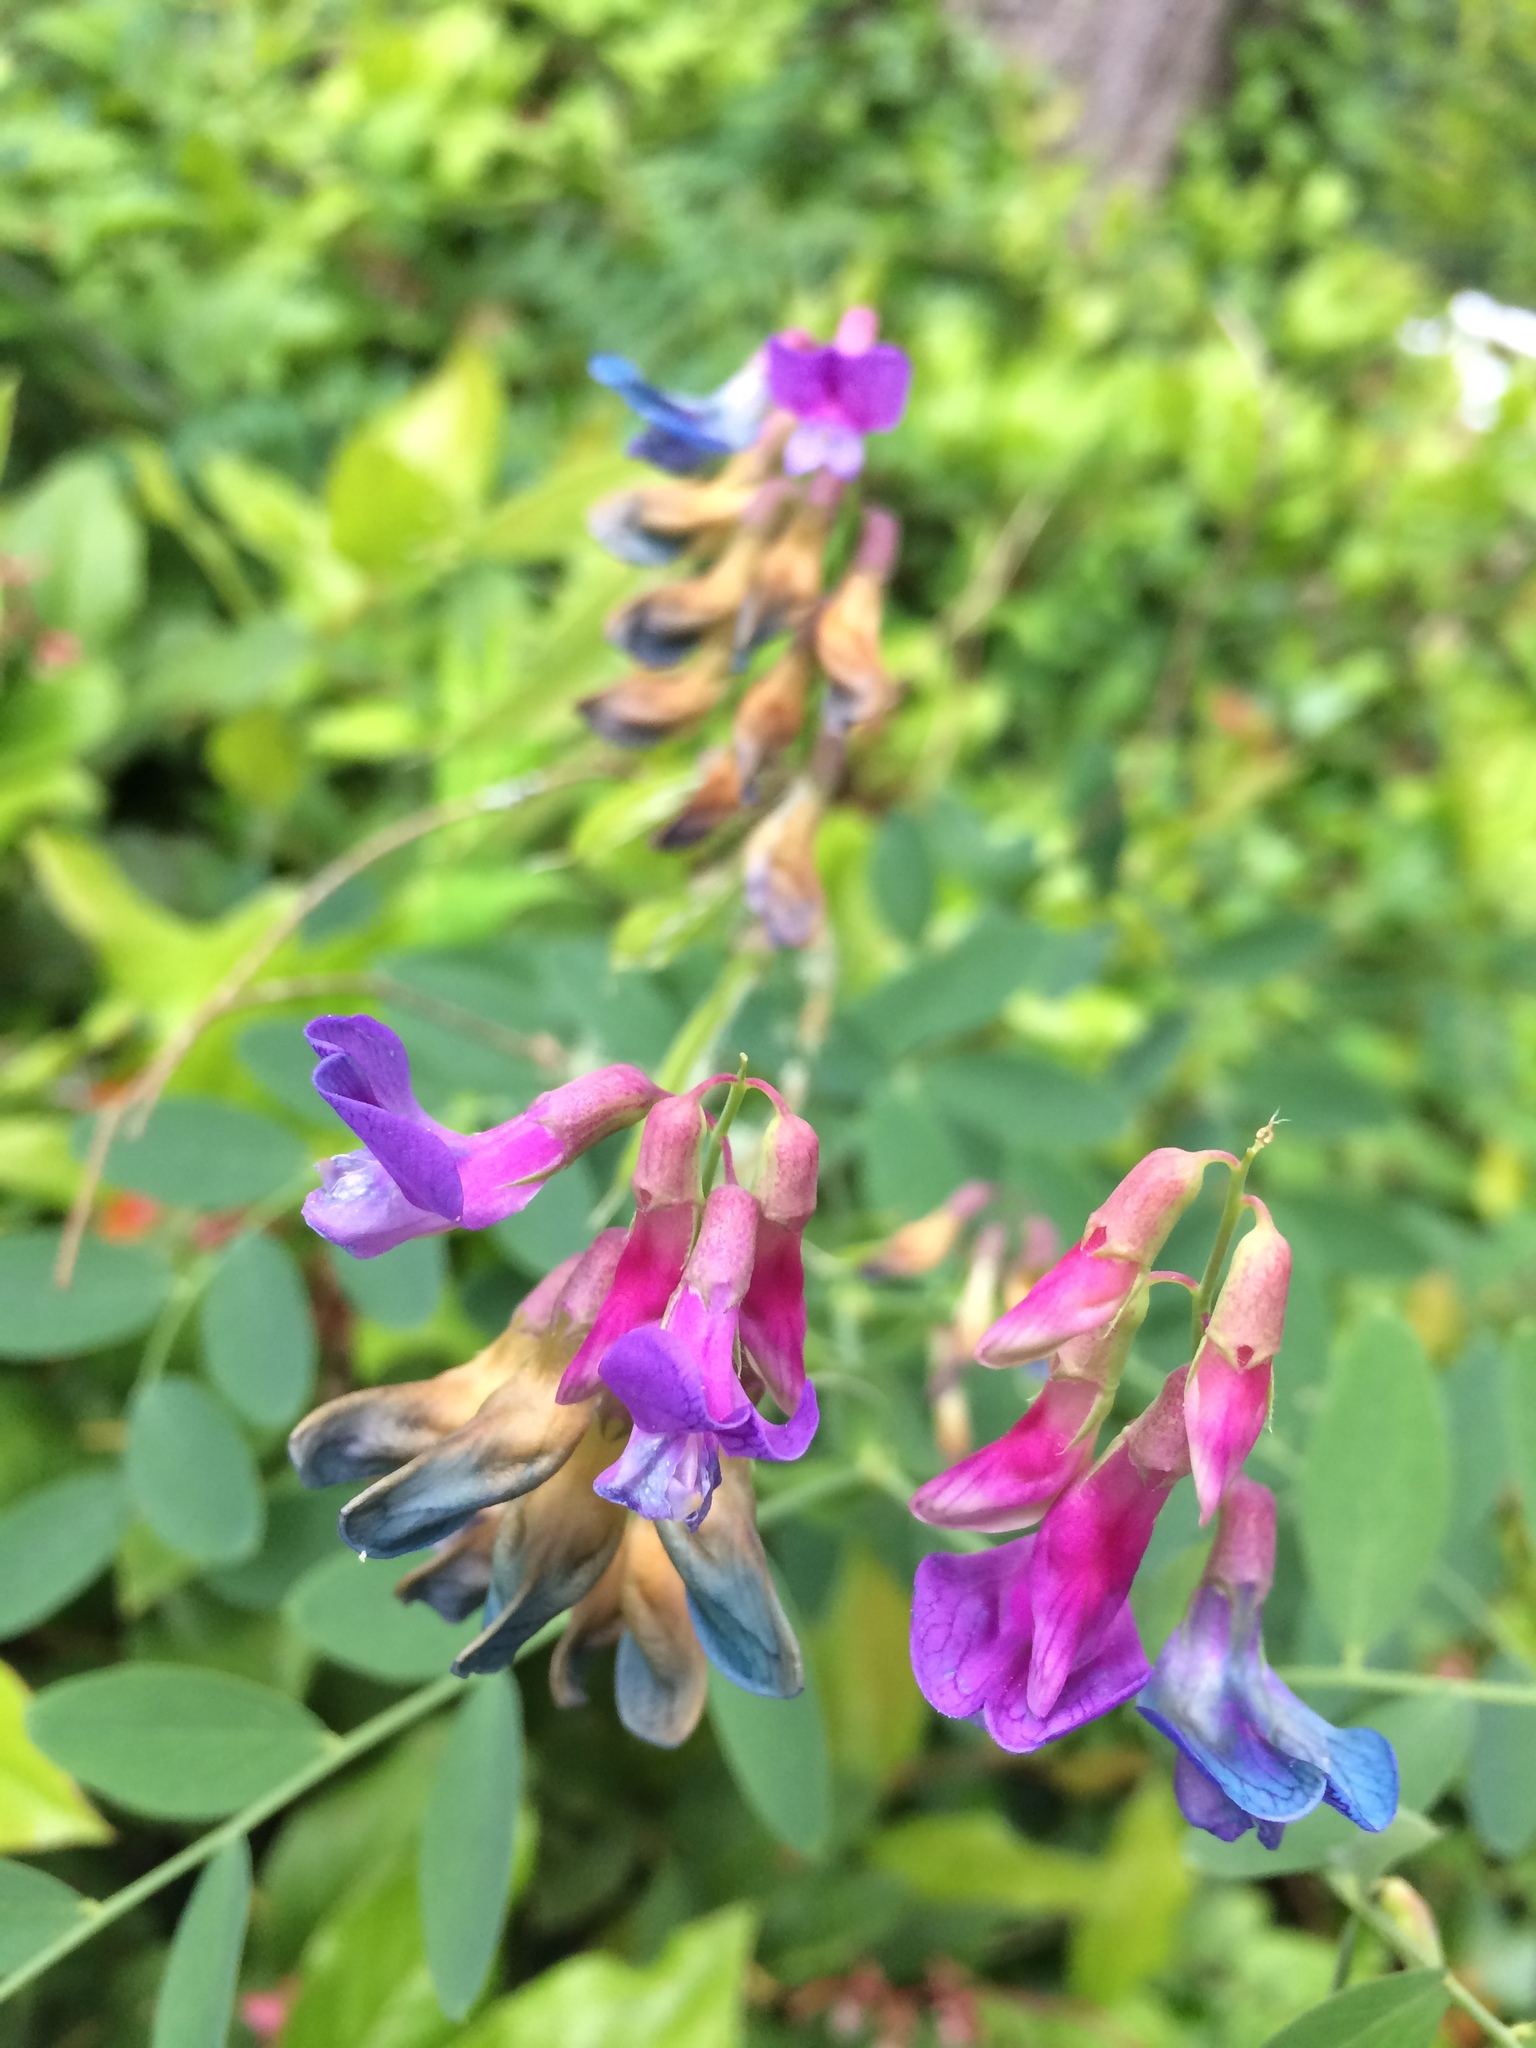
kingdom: Plantae
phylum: Tracheophyta
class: Magnoliopsida
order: Fabales
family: Fabaceae
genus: Vicia
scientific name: Vicia cracca
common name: Bird vetch
